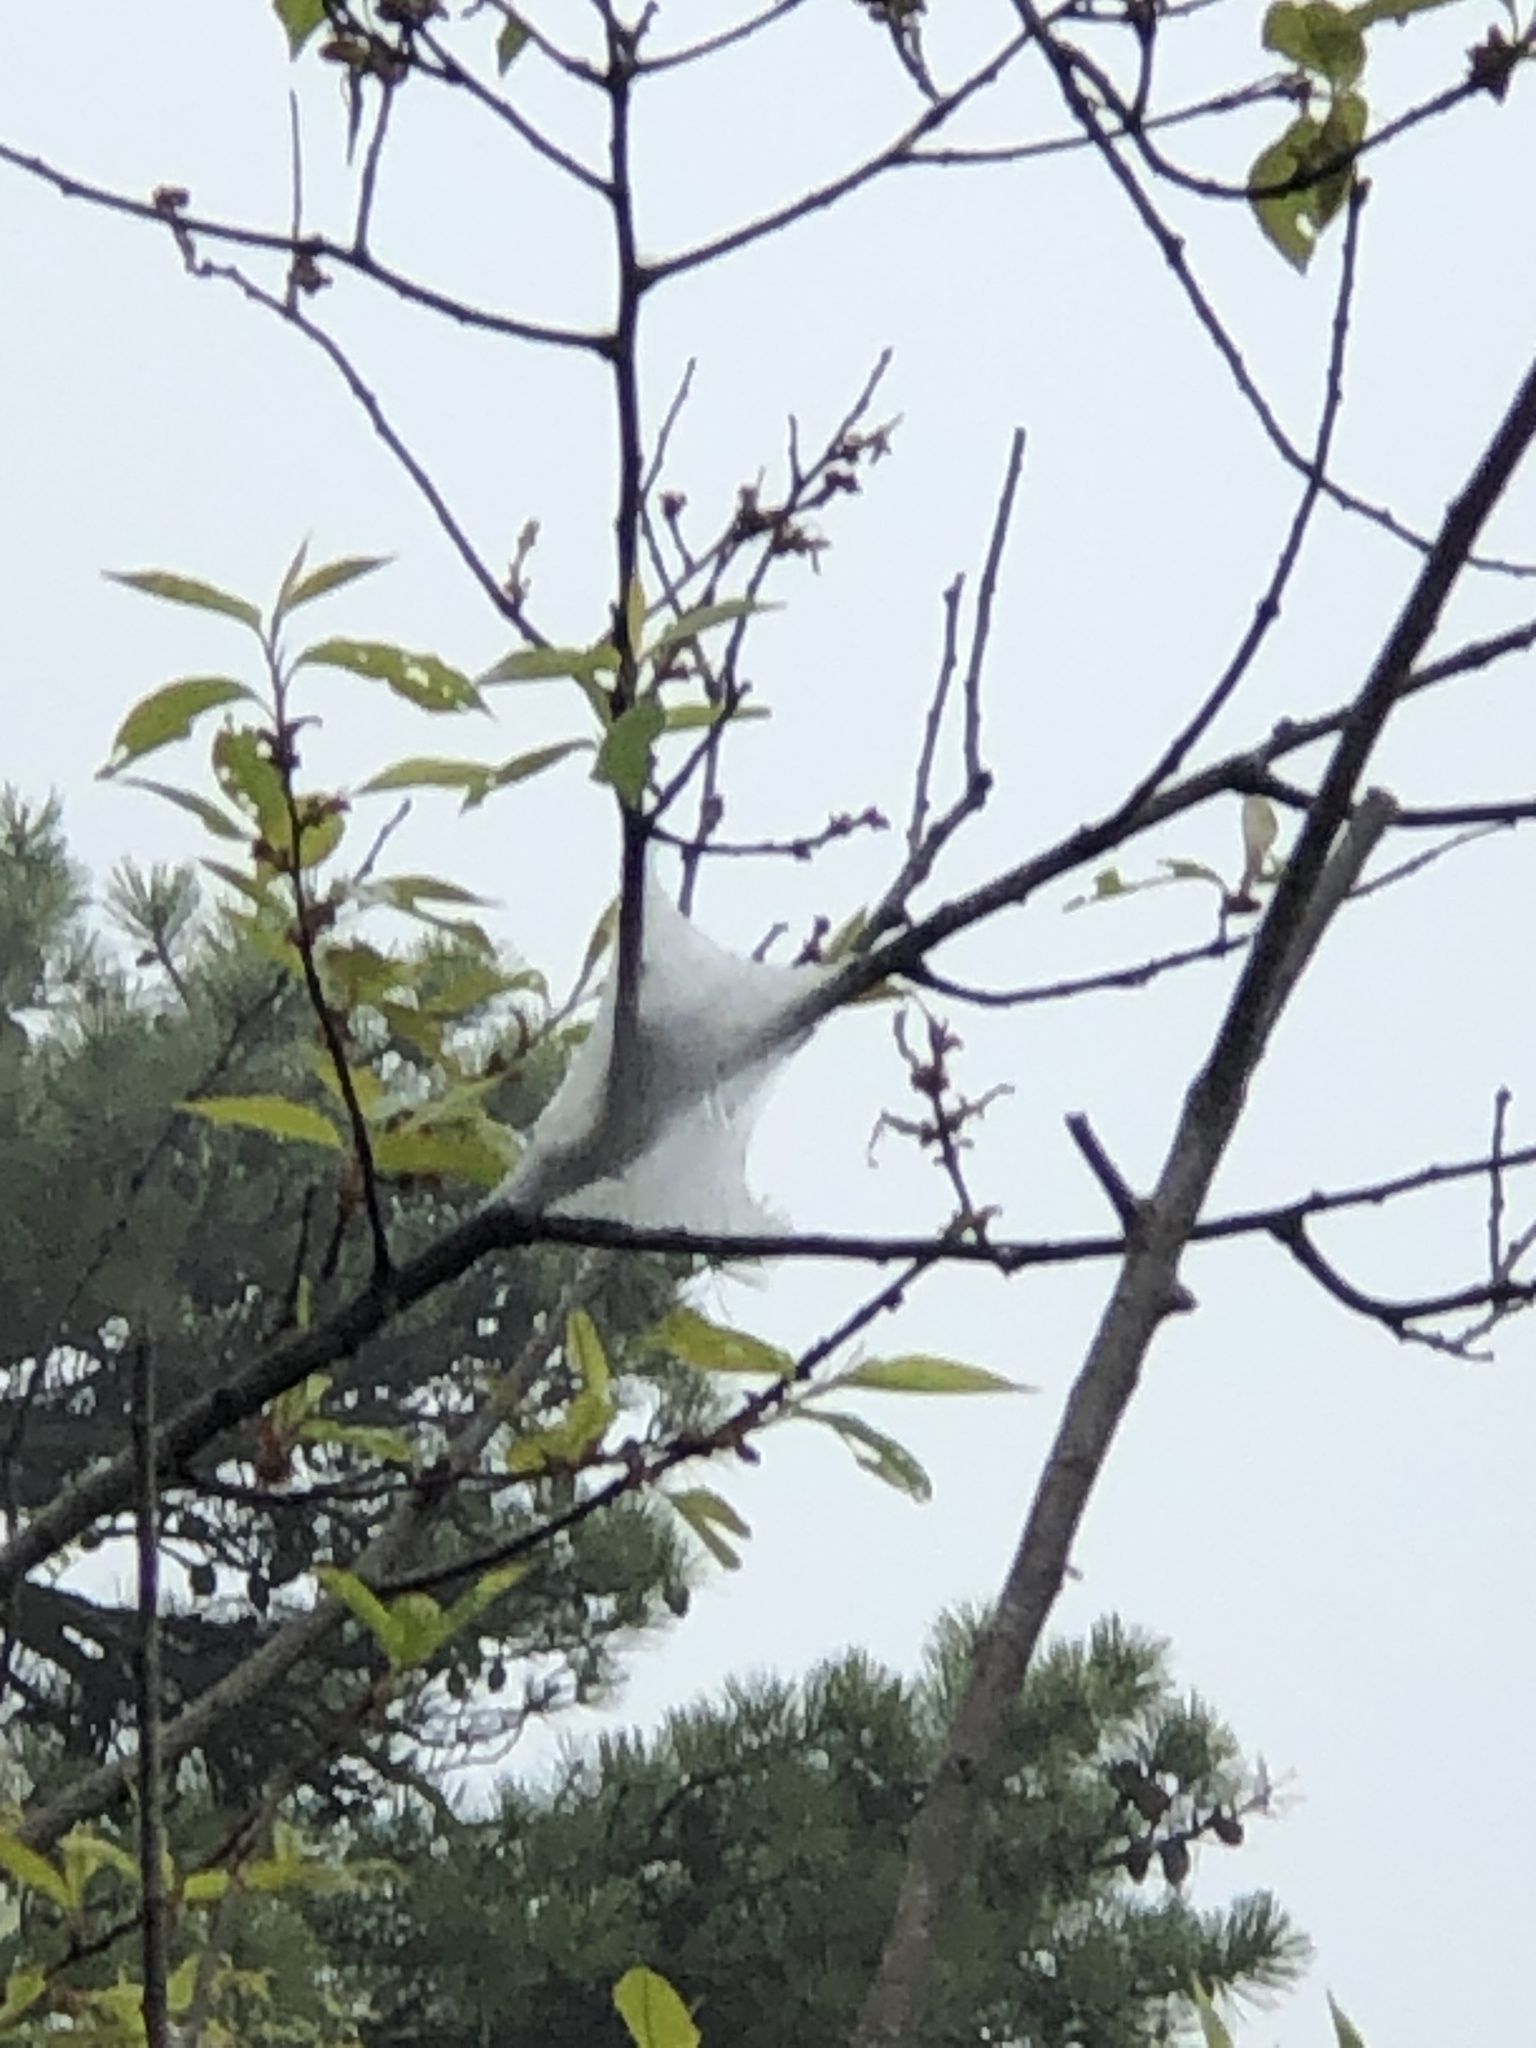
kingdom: Animalia
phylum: Arthropoda
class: Insecta
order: Lepidoptera
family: Lasiocampidae
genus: Malacosoma
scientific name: Malacosoma americana
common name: Eastern tent caterpillar moth
